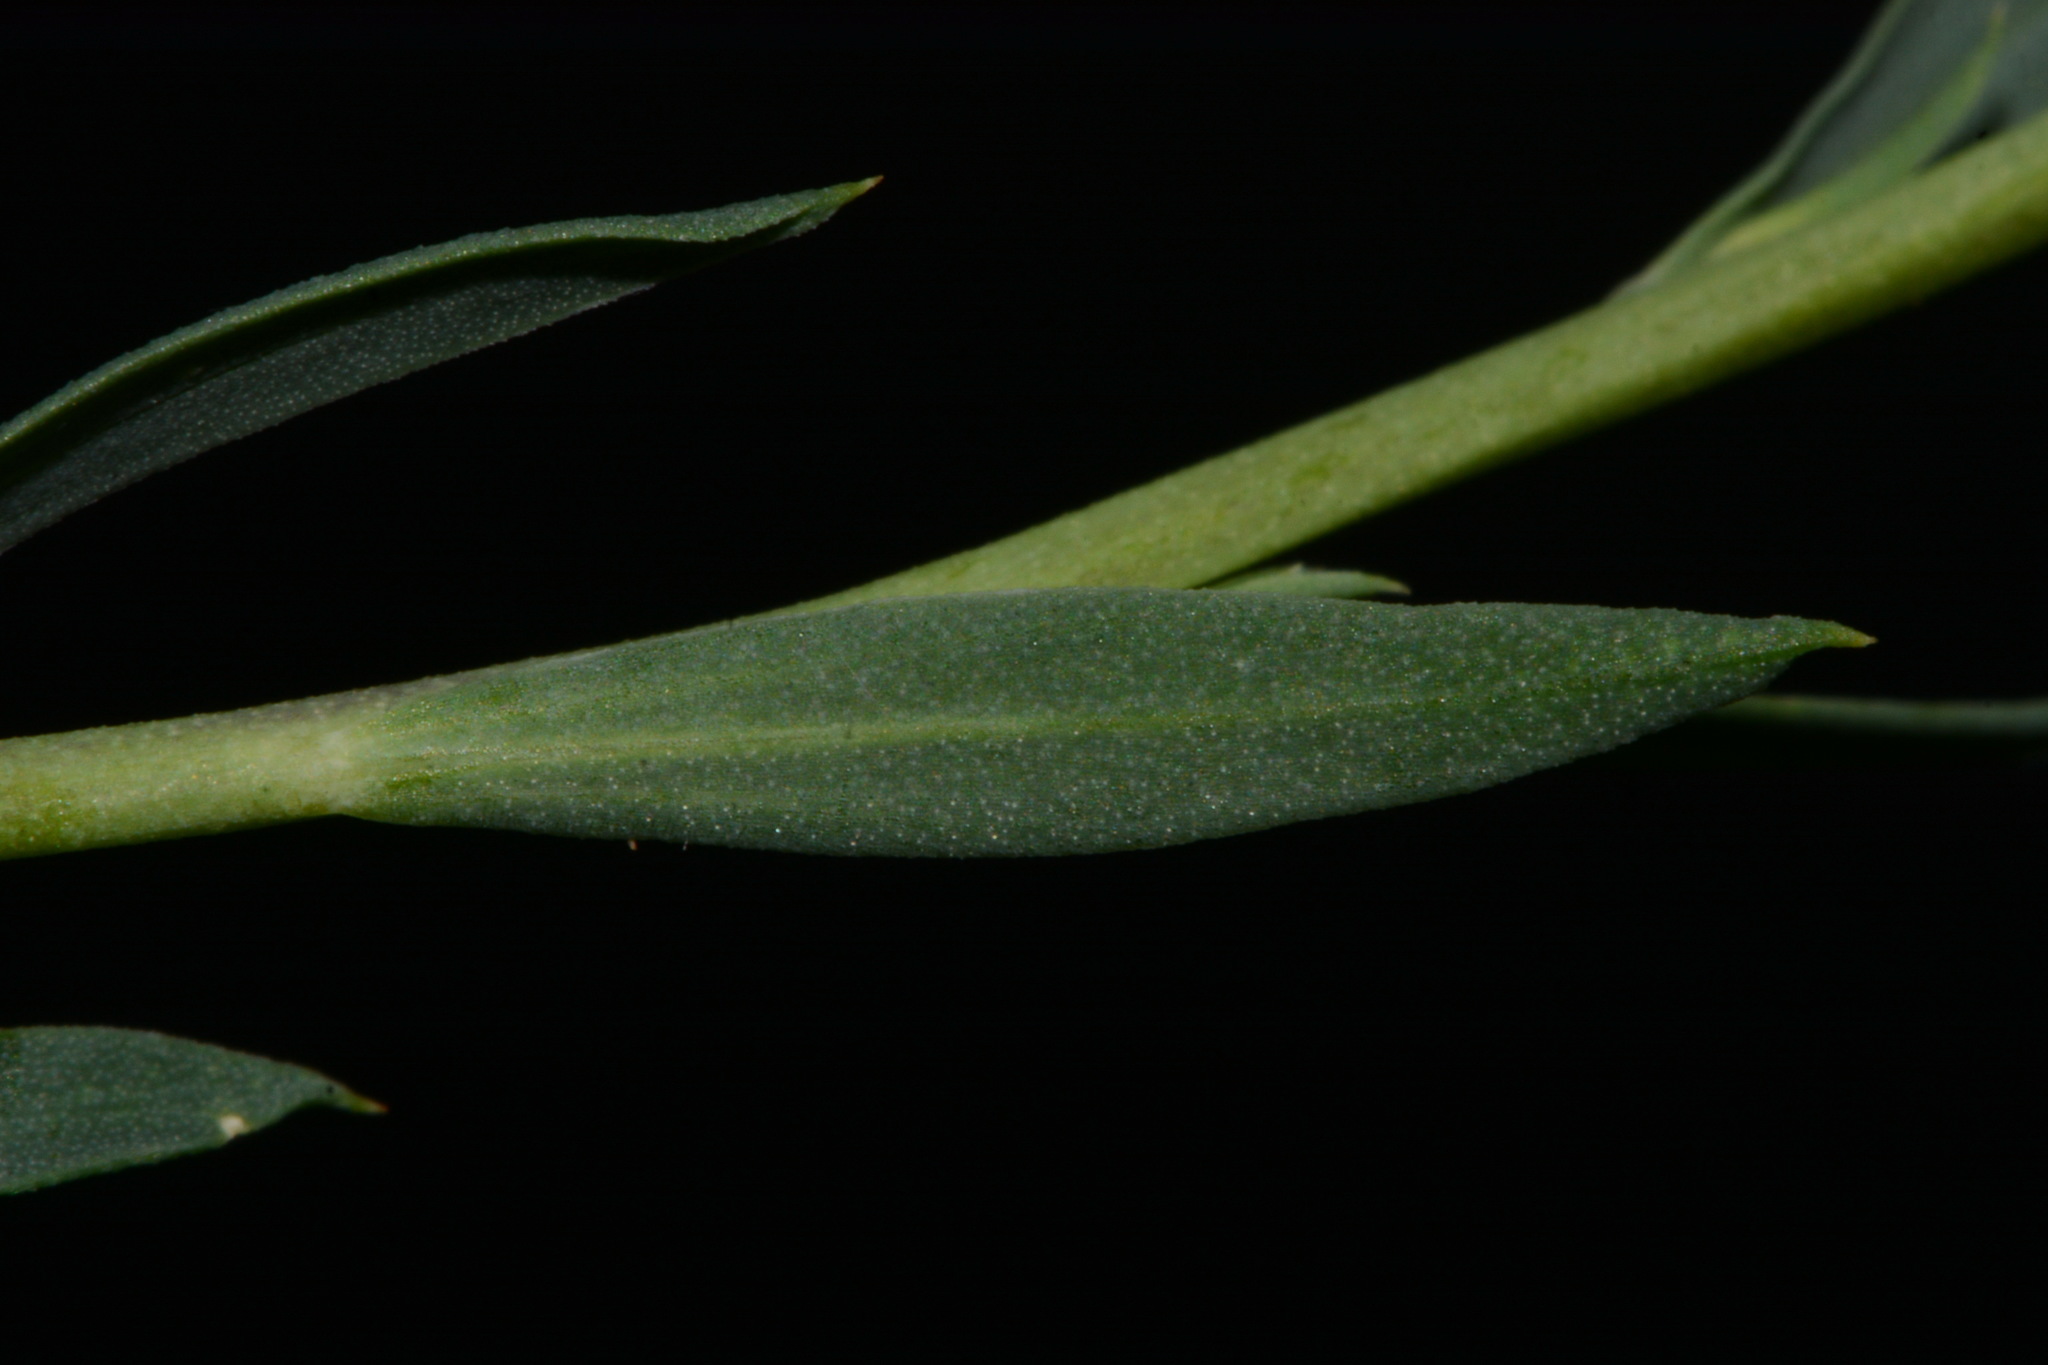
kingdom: Plantae
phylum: Tracheophyta
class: Magnoliopsida
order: Malpighiales
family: Linaceae
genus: Linum
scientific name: Linum lewisii
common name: Prairie flax
